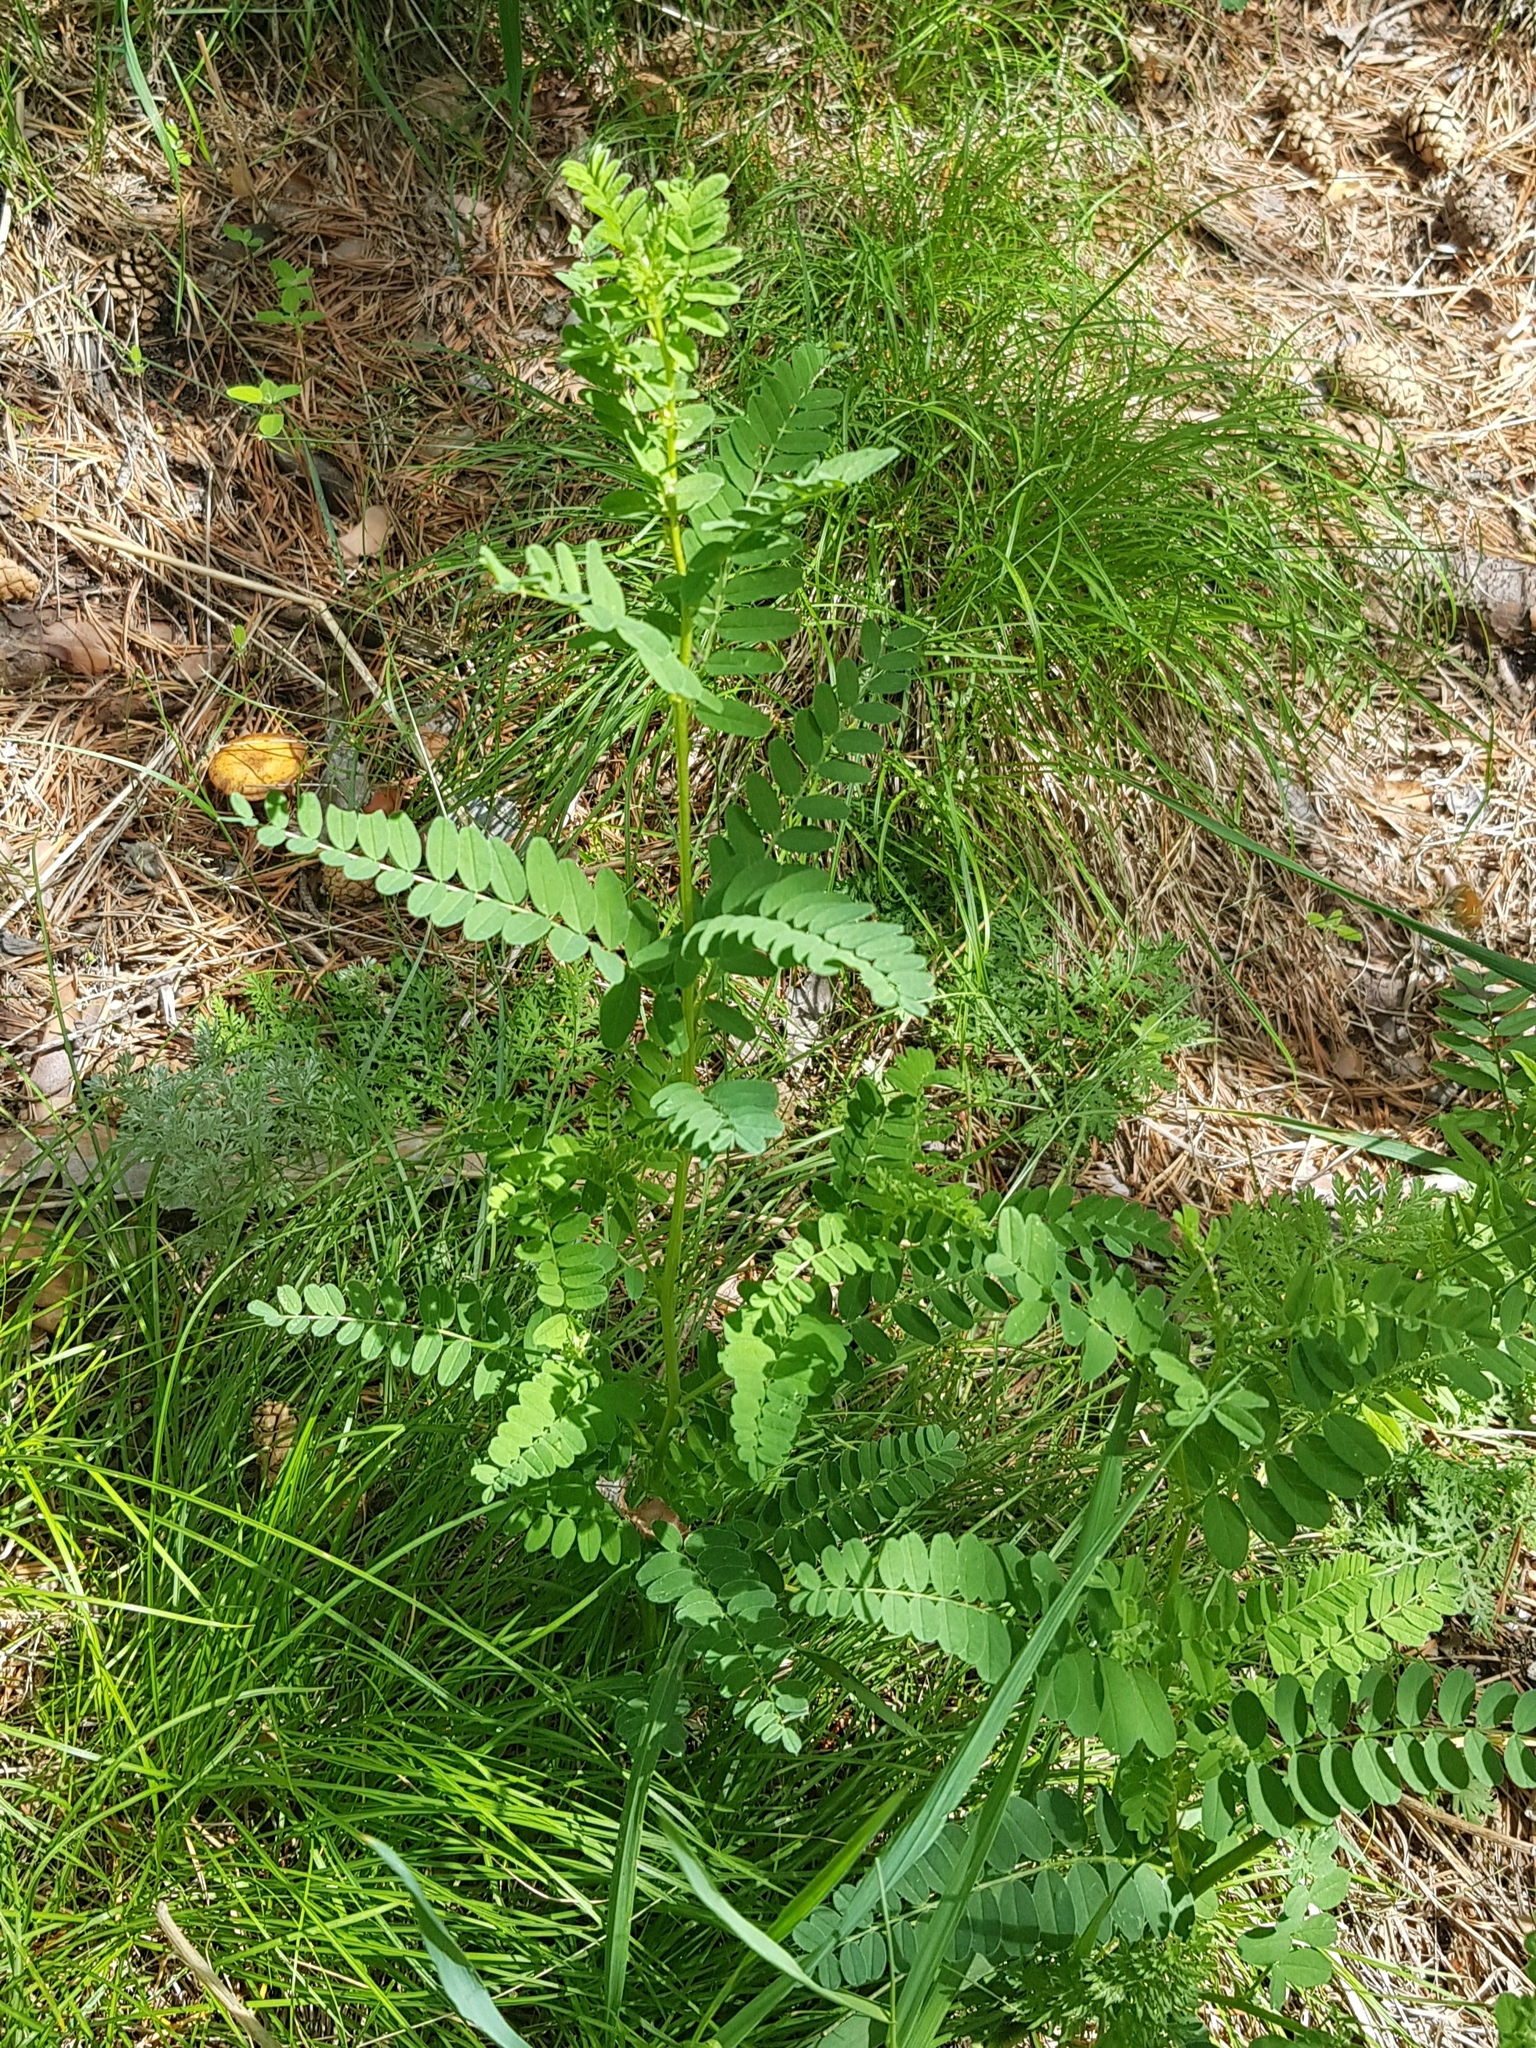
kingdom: Plantae
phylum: Tracheophyta
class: Magnoliopsida
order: Fabales
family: Fabaceae
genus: Vicia
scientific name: Vicia cracca
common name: Bird vetch
